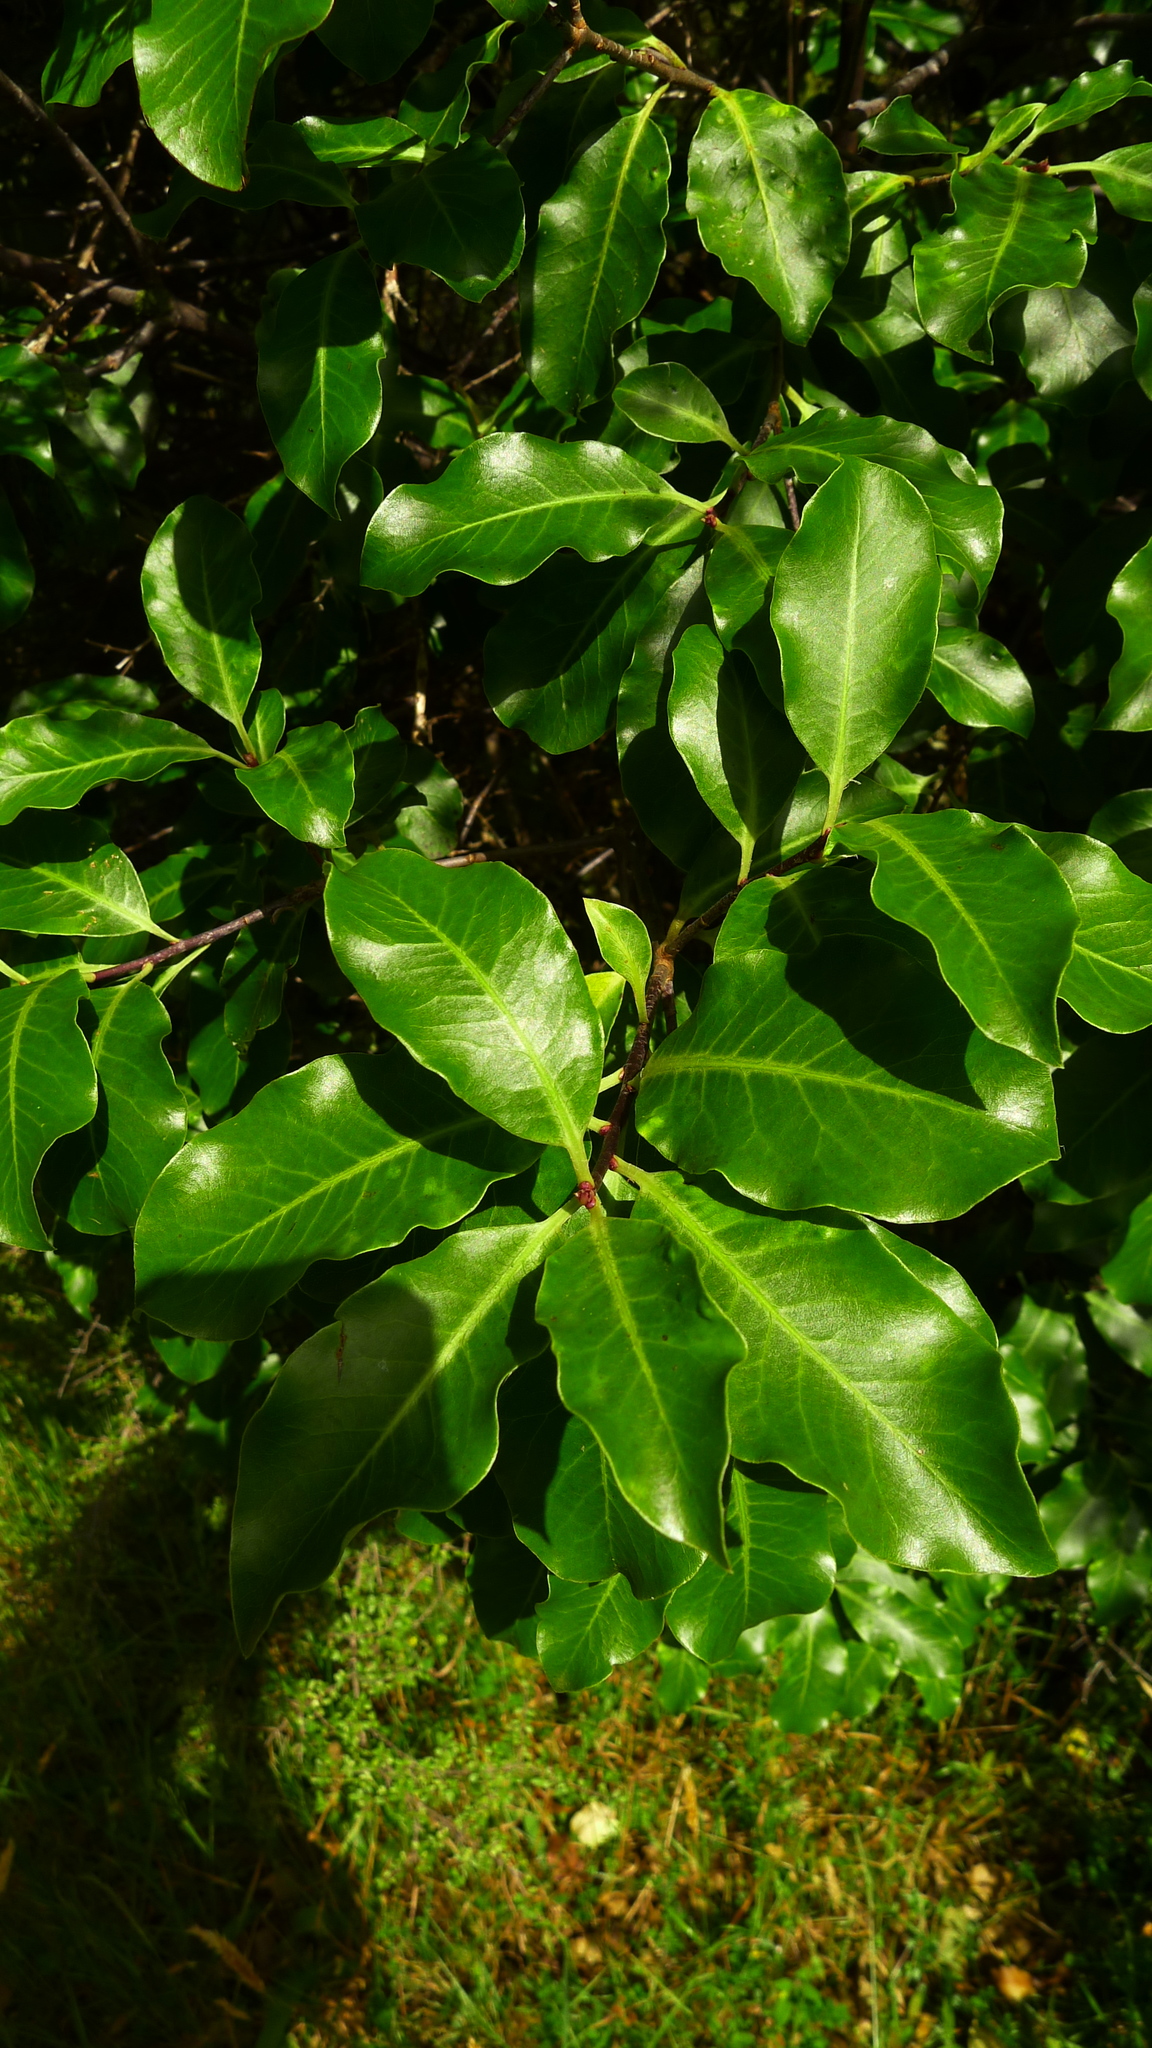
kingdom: Plantae
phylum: Tracheophyta
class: Magnoliopsida
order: Apiales
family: Pittosporaceae
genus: Pittosporum
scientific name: Pittosporum colensoi
